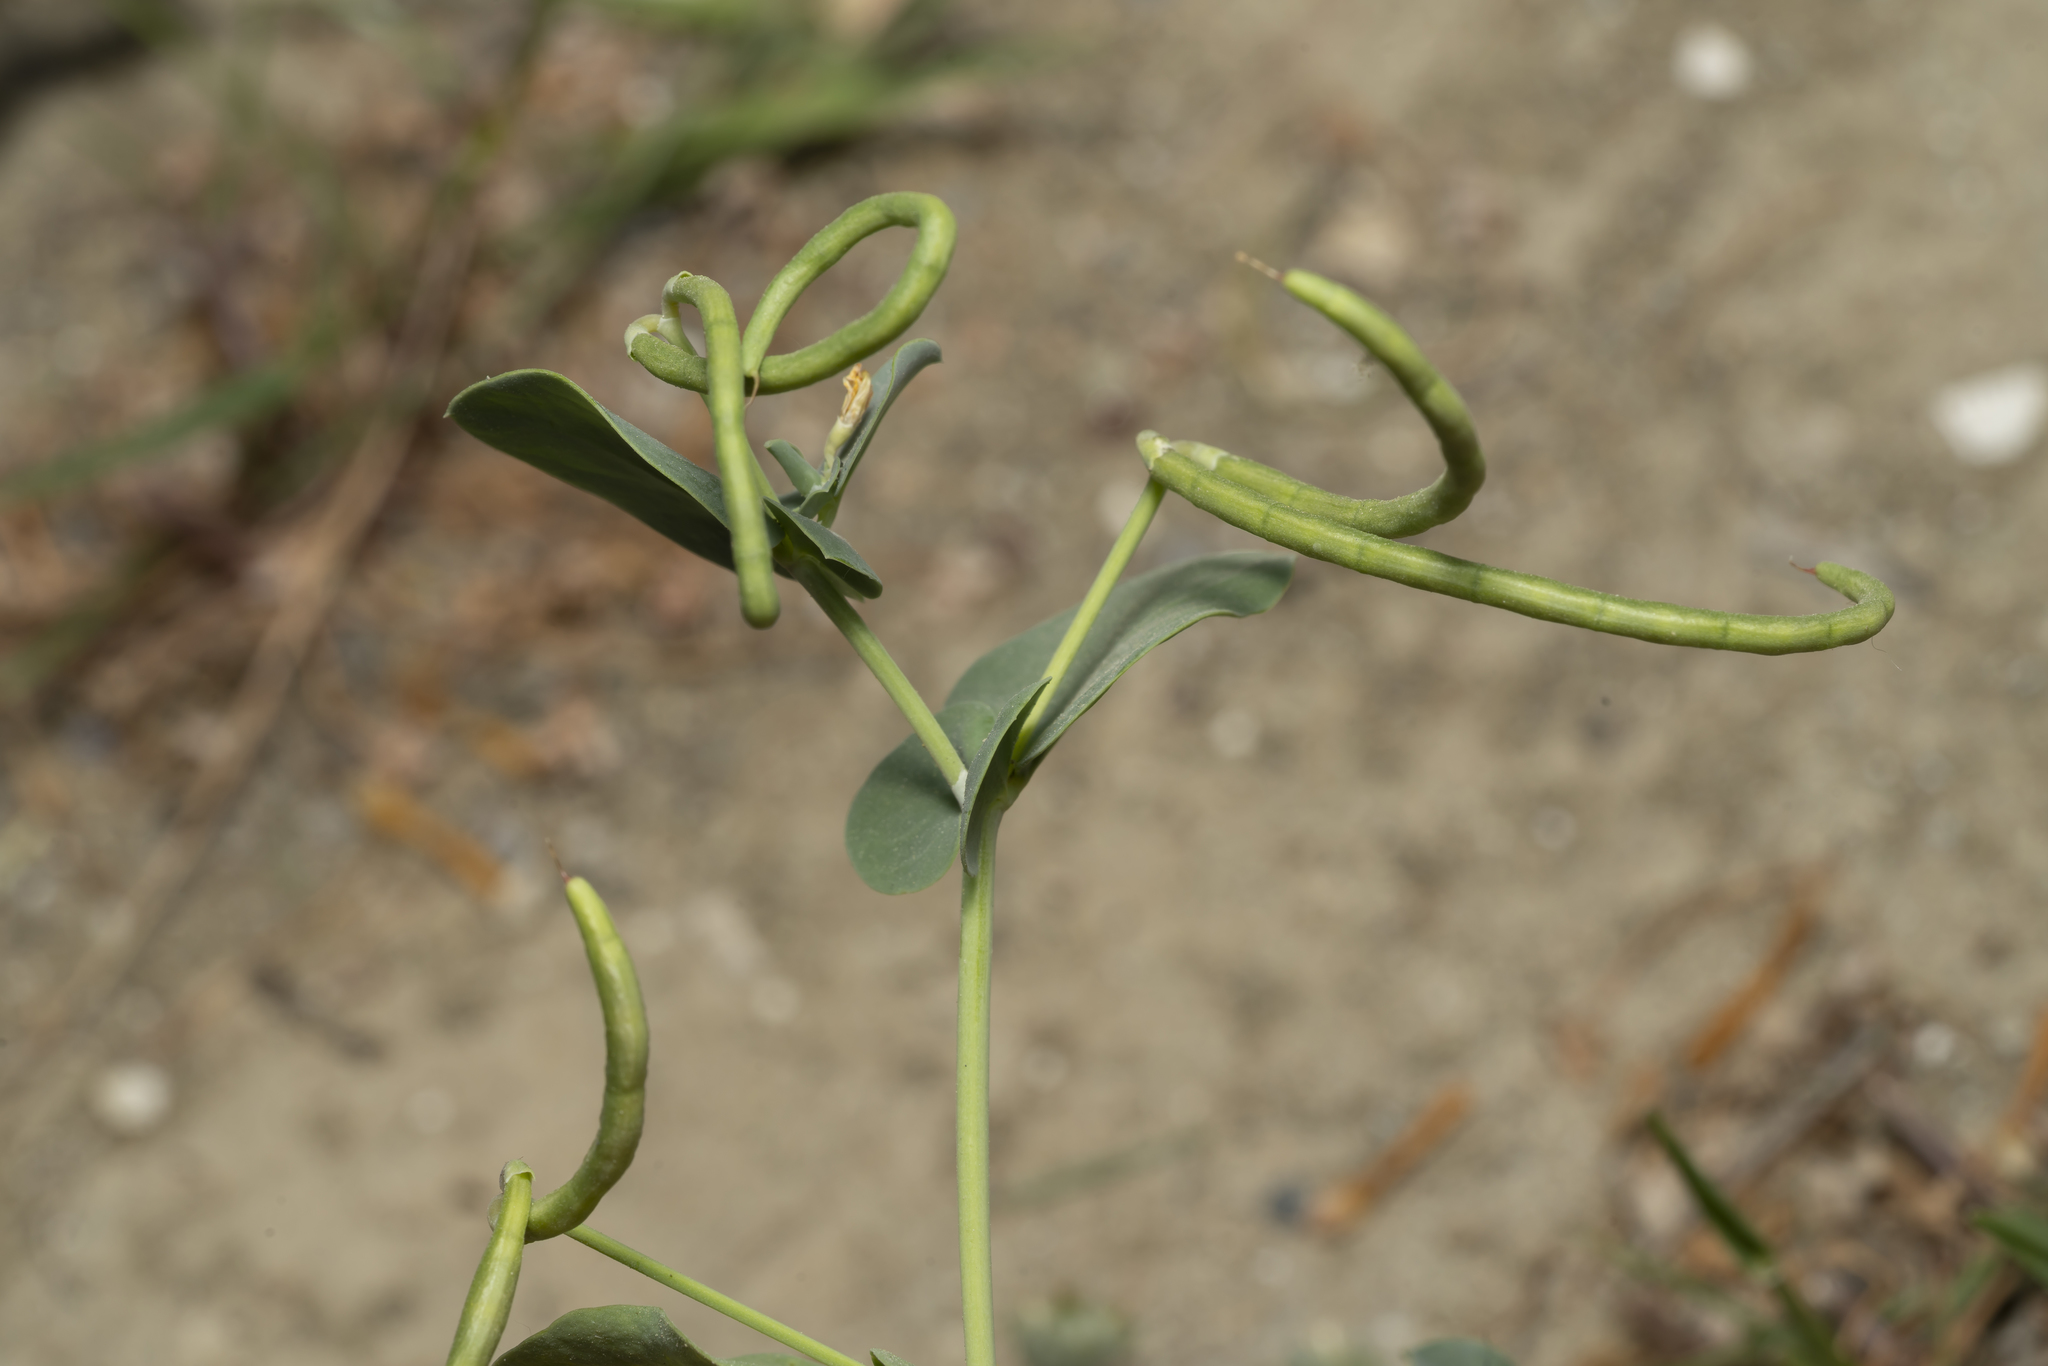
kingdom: Plantae
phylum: Tracheophyta
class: Magnoliopsida
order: Fabales
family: Fabaceae
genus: Coronilla
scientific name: Coronilla scorpioides
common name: Annual scorpion-vetch
